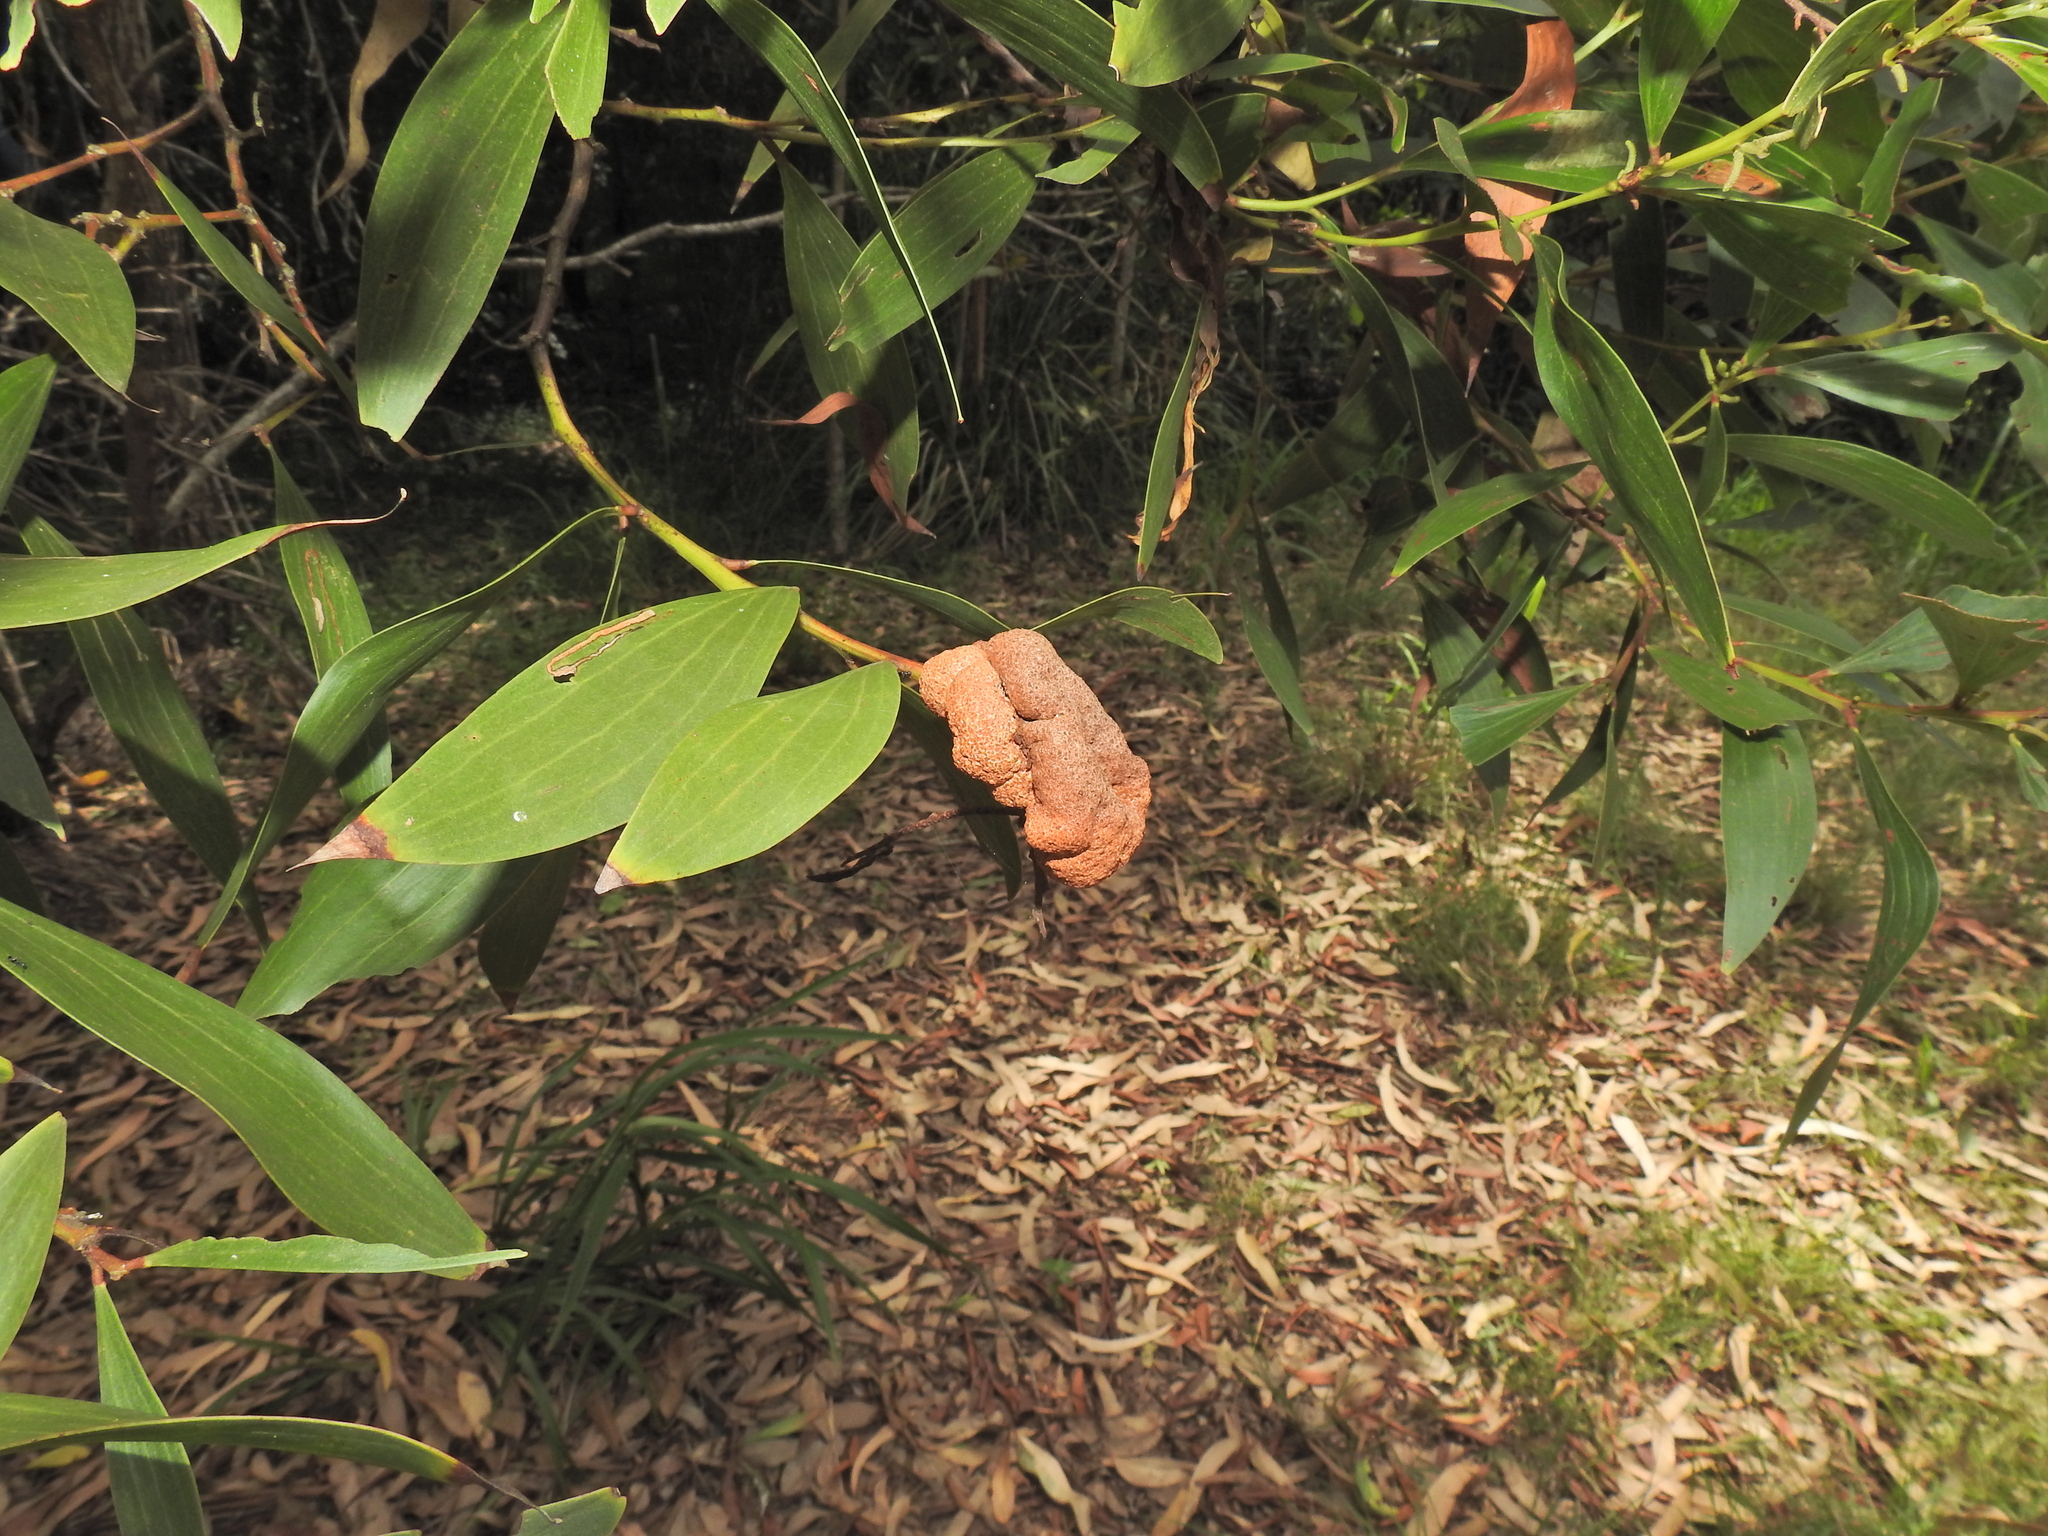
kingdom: Fungi
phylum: Basidiomycota
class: Pucciniomycetes
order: Pucciniales
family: Uromycladiaceae
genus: Uromycladium
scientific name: Uromycladium leiocalycis
